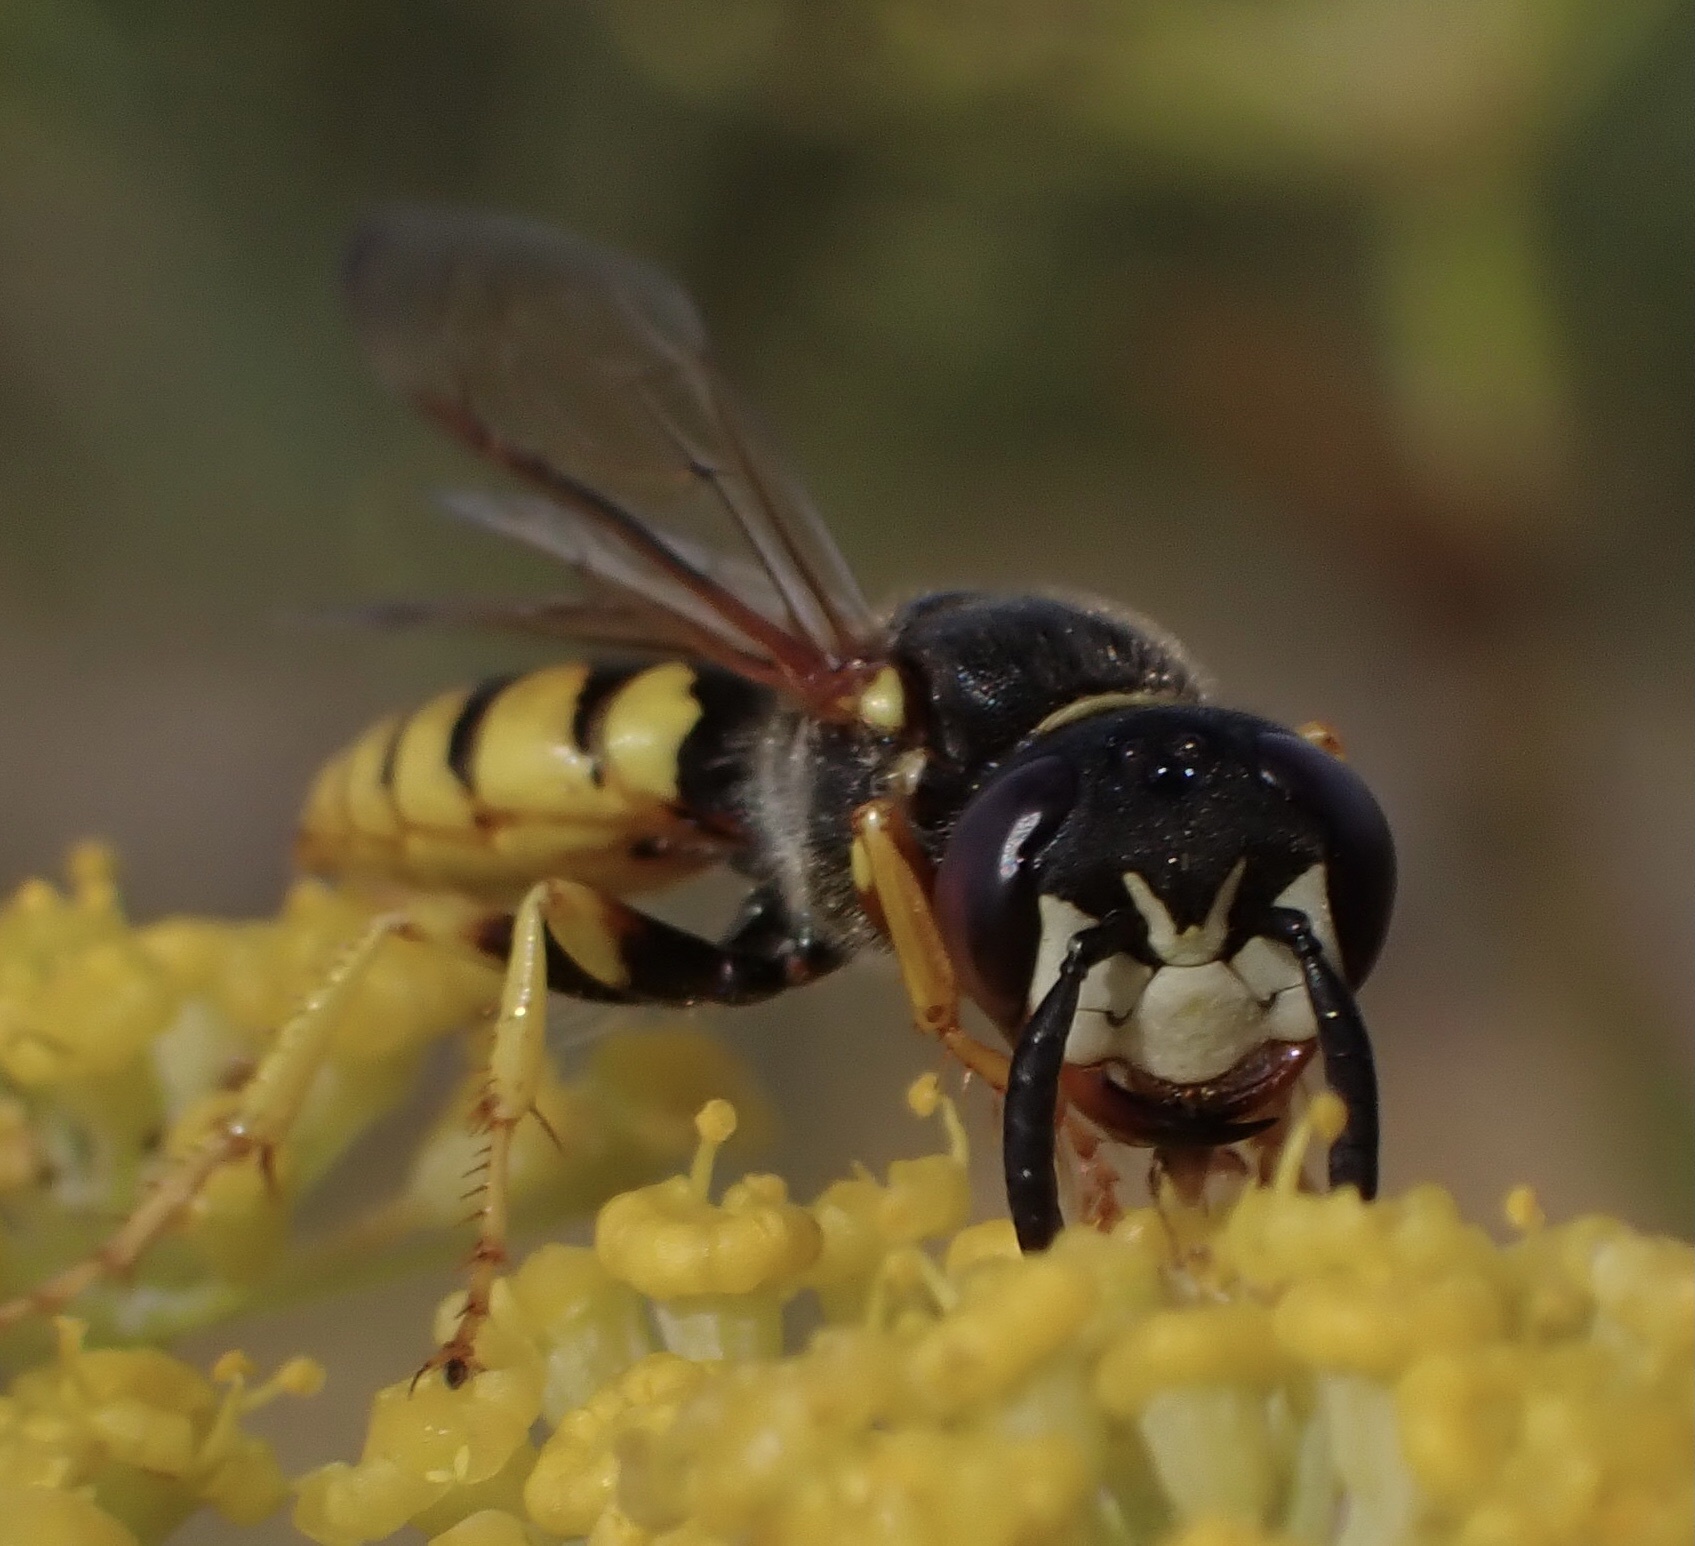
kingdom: Animalia
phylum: Arthropoda
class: Insecta
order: Hymenoptera
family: Crabronidae
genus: Philanthus
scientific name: Philanthus triangulum
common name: Bee wolf
